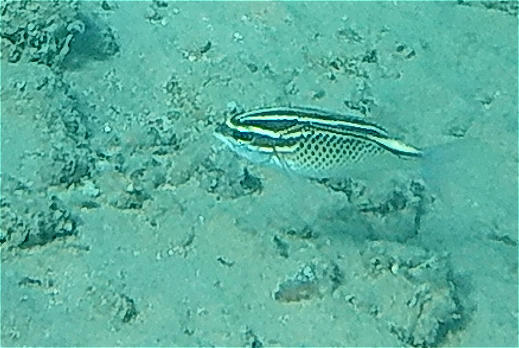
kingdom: Animalia
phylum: Chordata
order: Perciformes
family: Nemipteridae
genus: Scolopsis
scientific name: Scolopsis ghanam
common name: Arabian monocle bream
